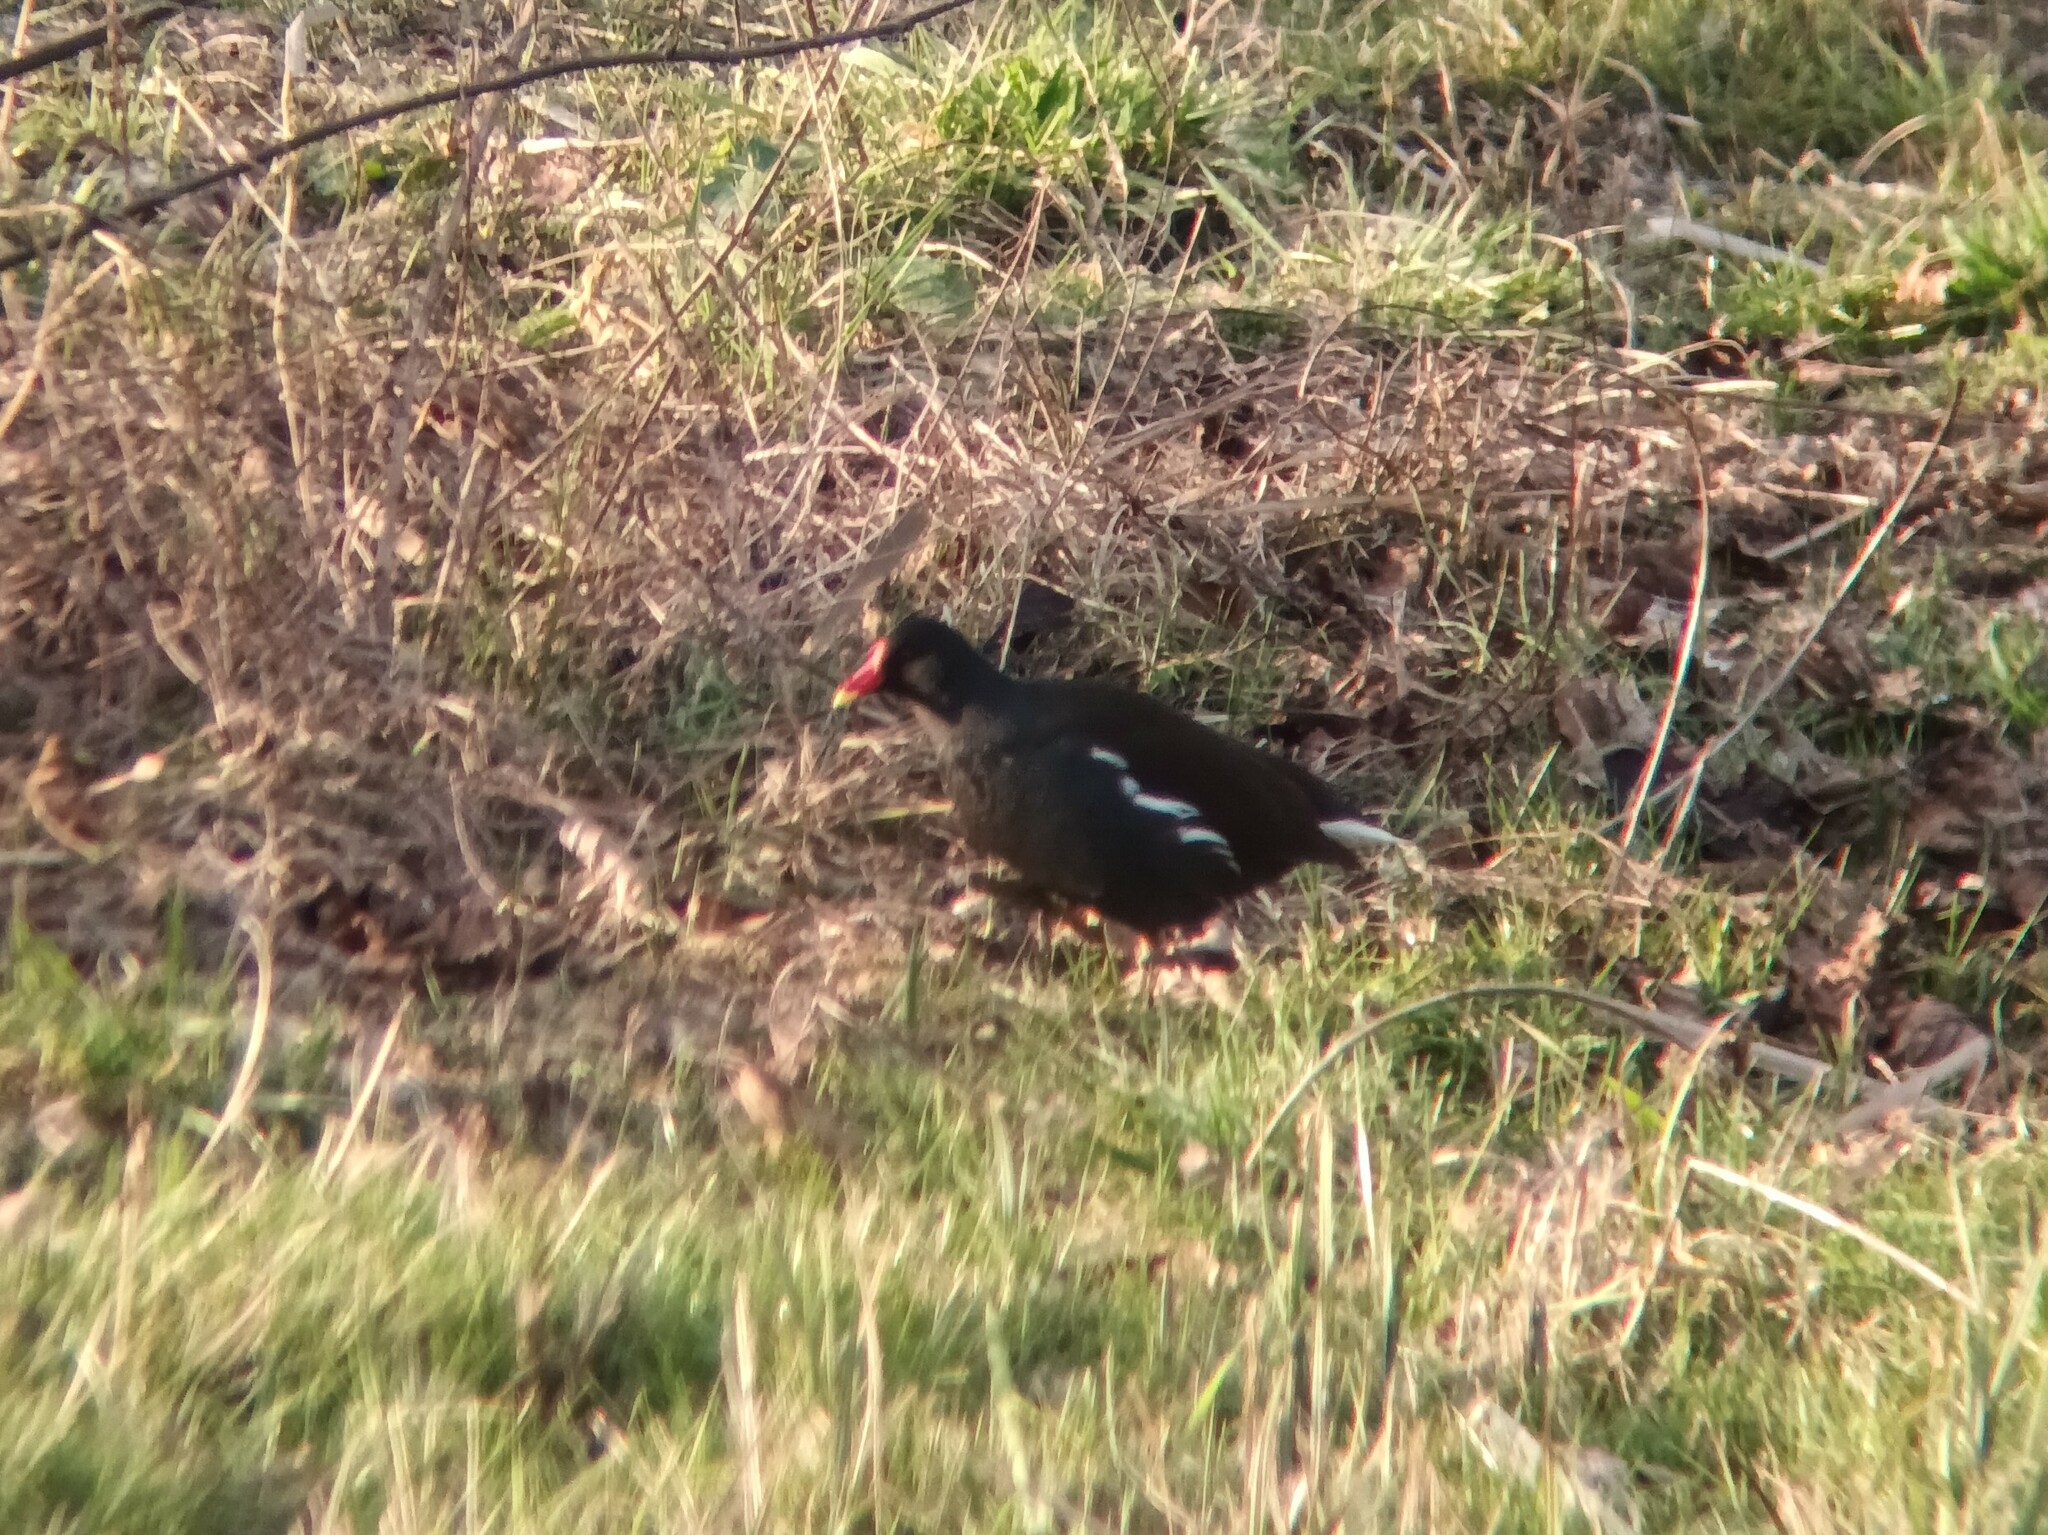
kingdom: Animalia
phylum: Chordata
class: Aves
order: Gruiformes
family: Rallidae
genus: Gallinula
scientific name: Gallinula chloropus
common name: Common moorhen
